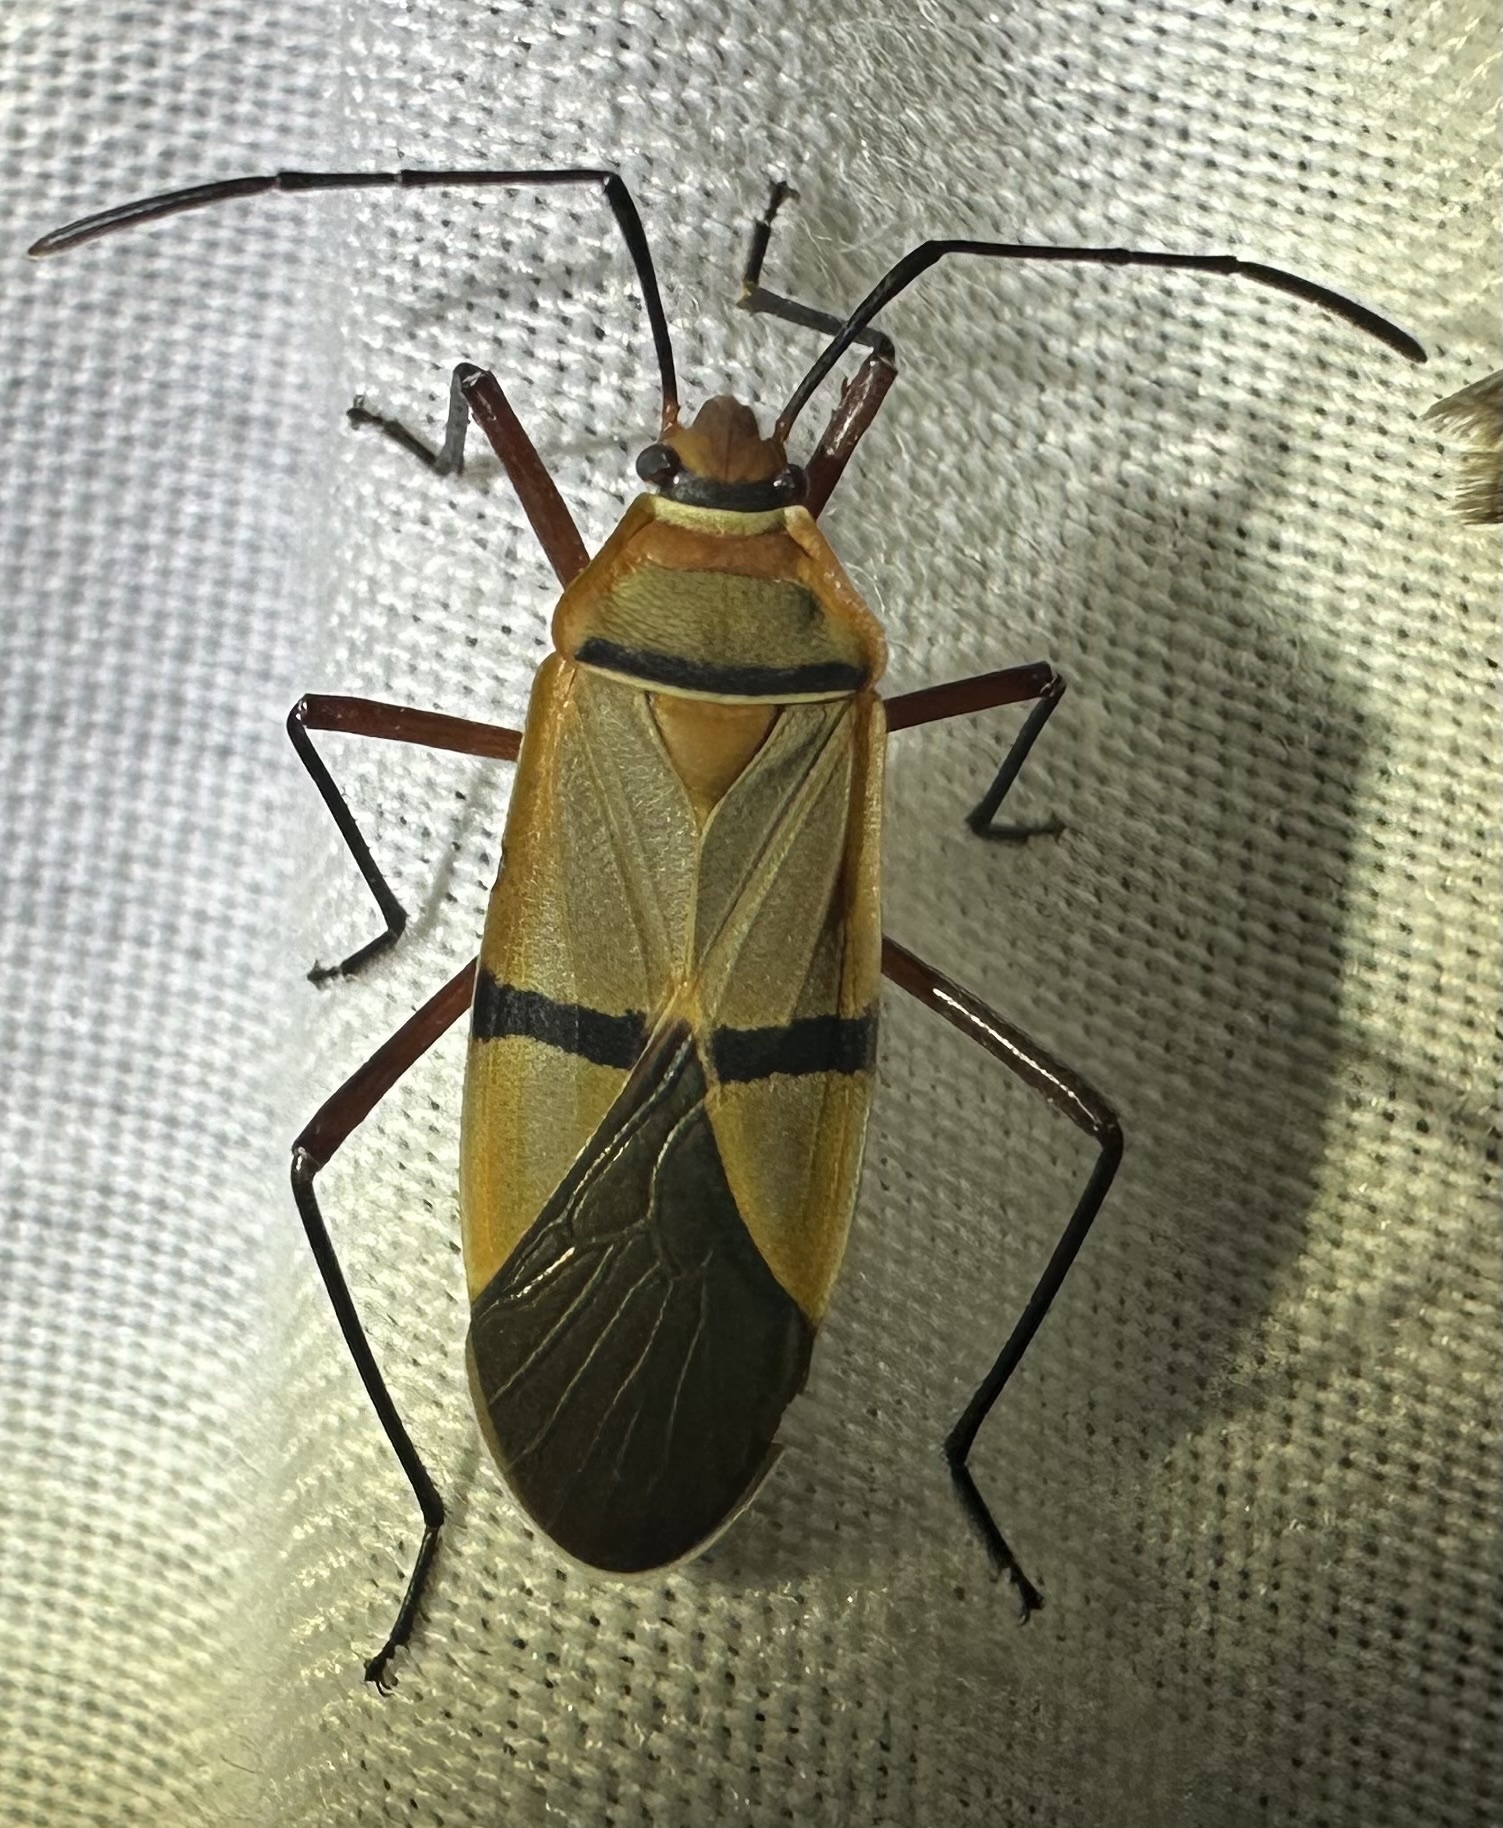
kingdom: Animalia
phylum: Arthropoda
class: Insecta
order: Hemiptera
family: Pyrrhocoridae
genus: Dysdercus
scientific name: Dysdercus
